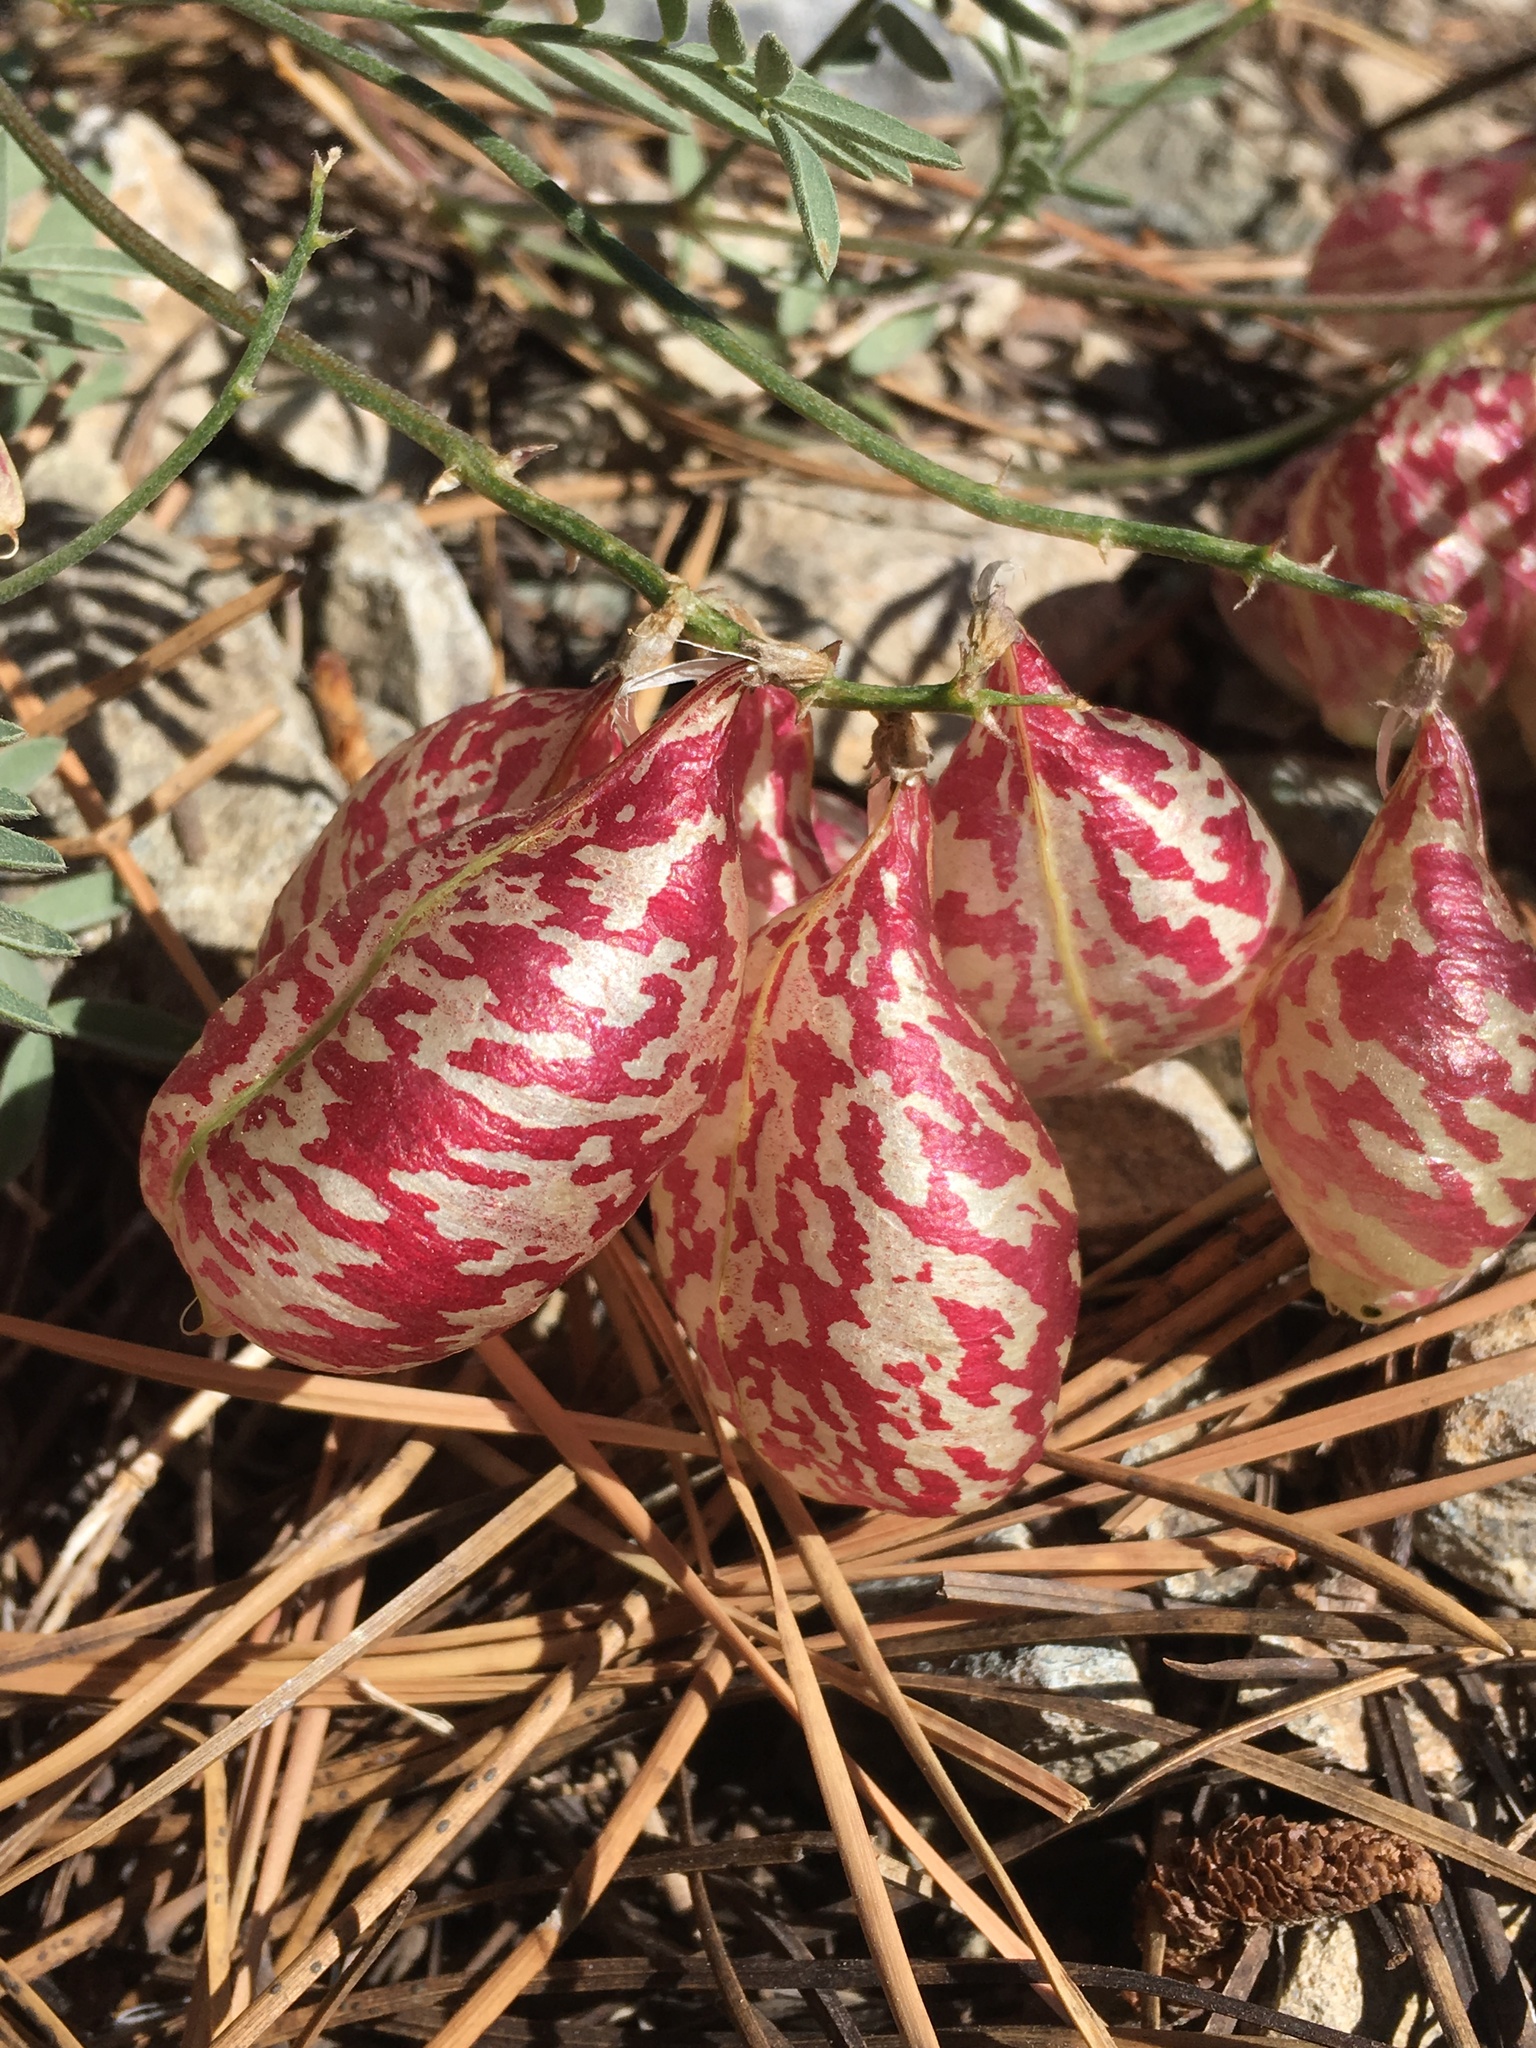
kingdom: Plantae
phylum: Tracheophyta
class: Magnoliopsida
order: Fabales
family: Fabaceae
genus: Astragalus
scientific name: Astragalus whitneyi
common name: Balloonpod milkvetch
